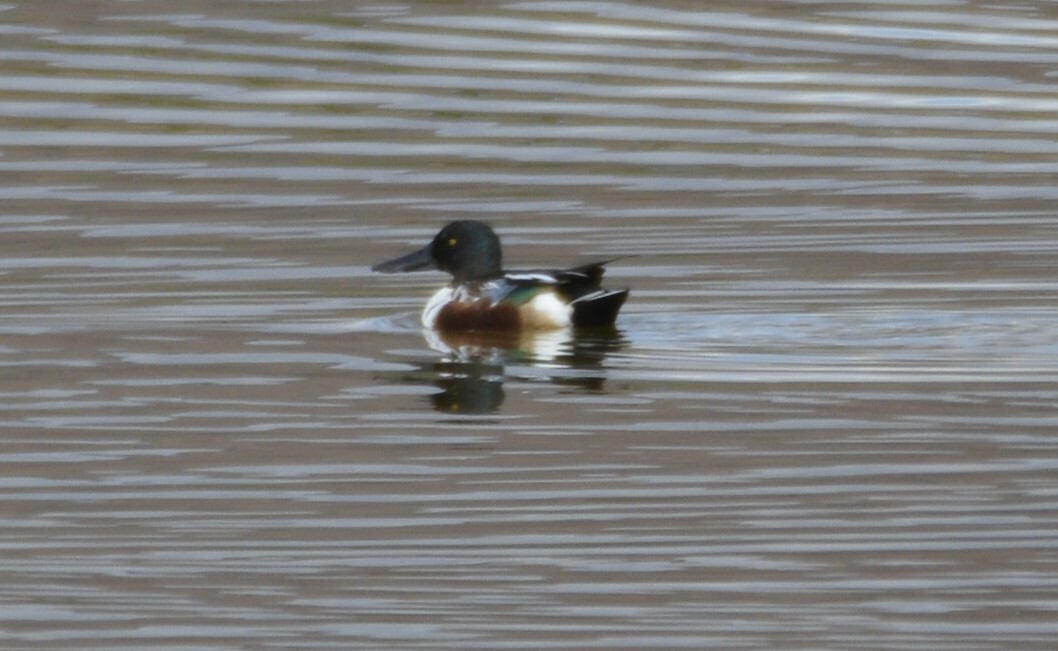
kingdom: Animalia
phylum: Chordata
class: Aves
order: Anseriformes
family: Anatidae
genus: Spatula
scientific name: Spatula clypeata
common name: Northern shoveler
